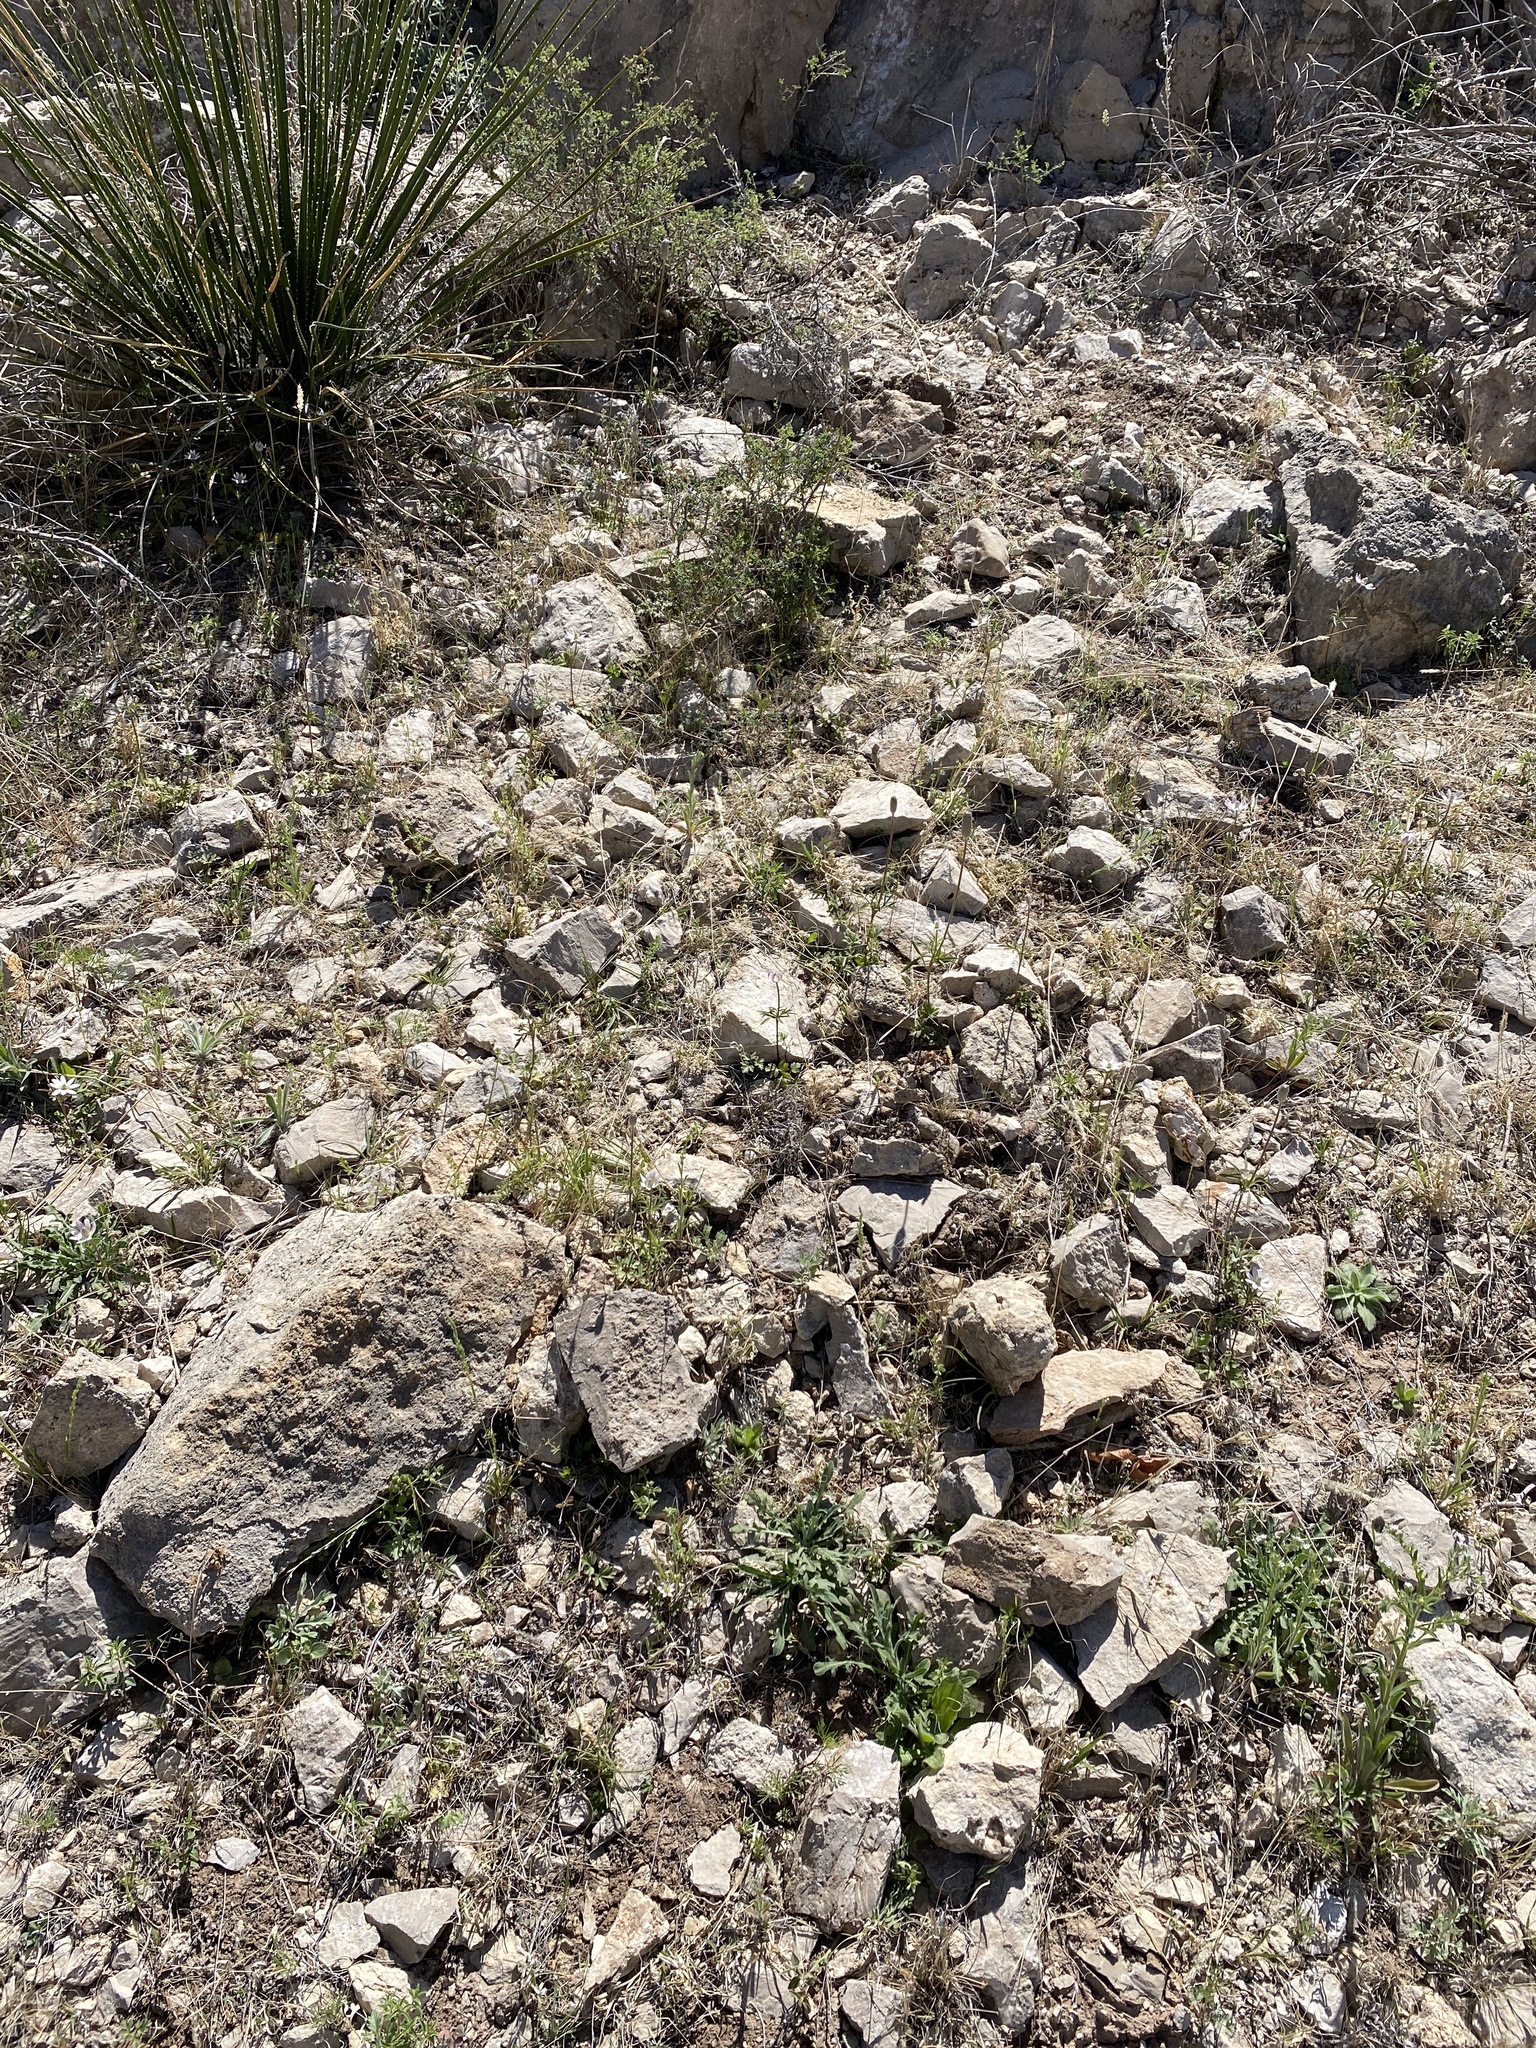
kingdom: Plantae
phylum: Tracheophyta
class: Magnoliopsida
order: Ranunculales
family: Ranunculaceae
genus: Anemone
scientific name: Anemone tuberosa
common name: Desert anemone
